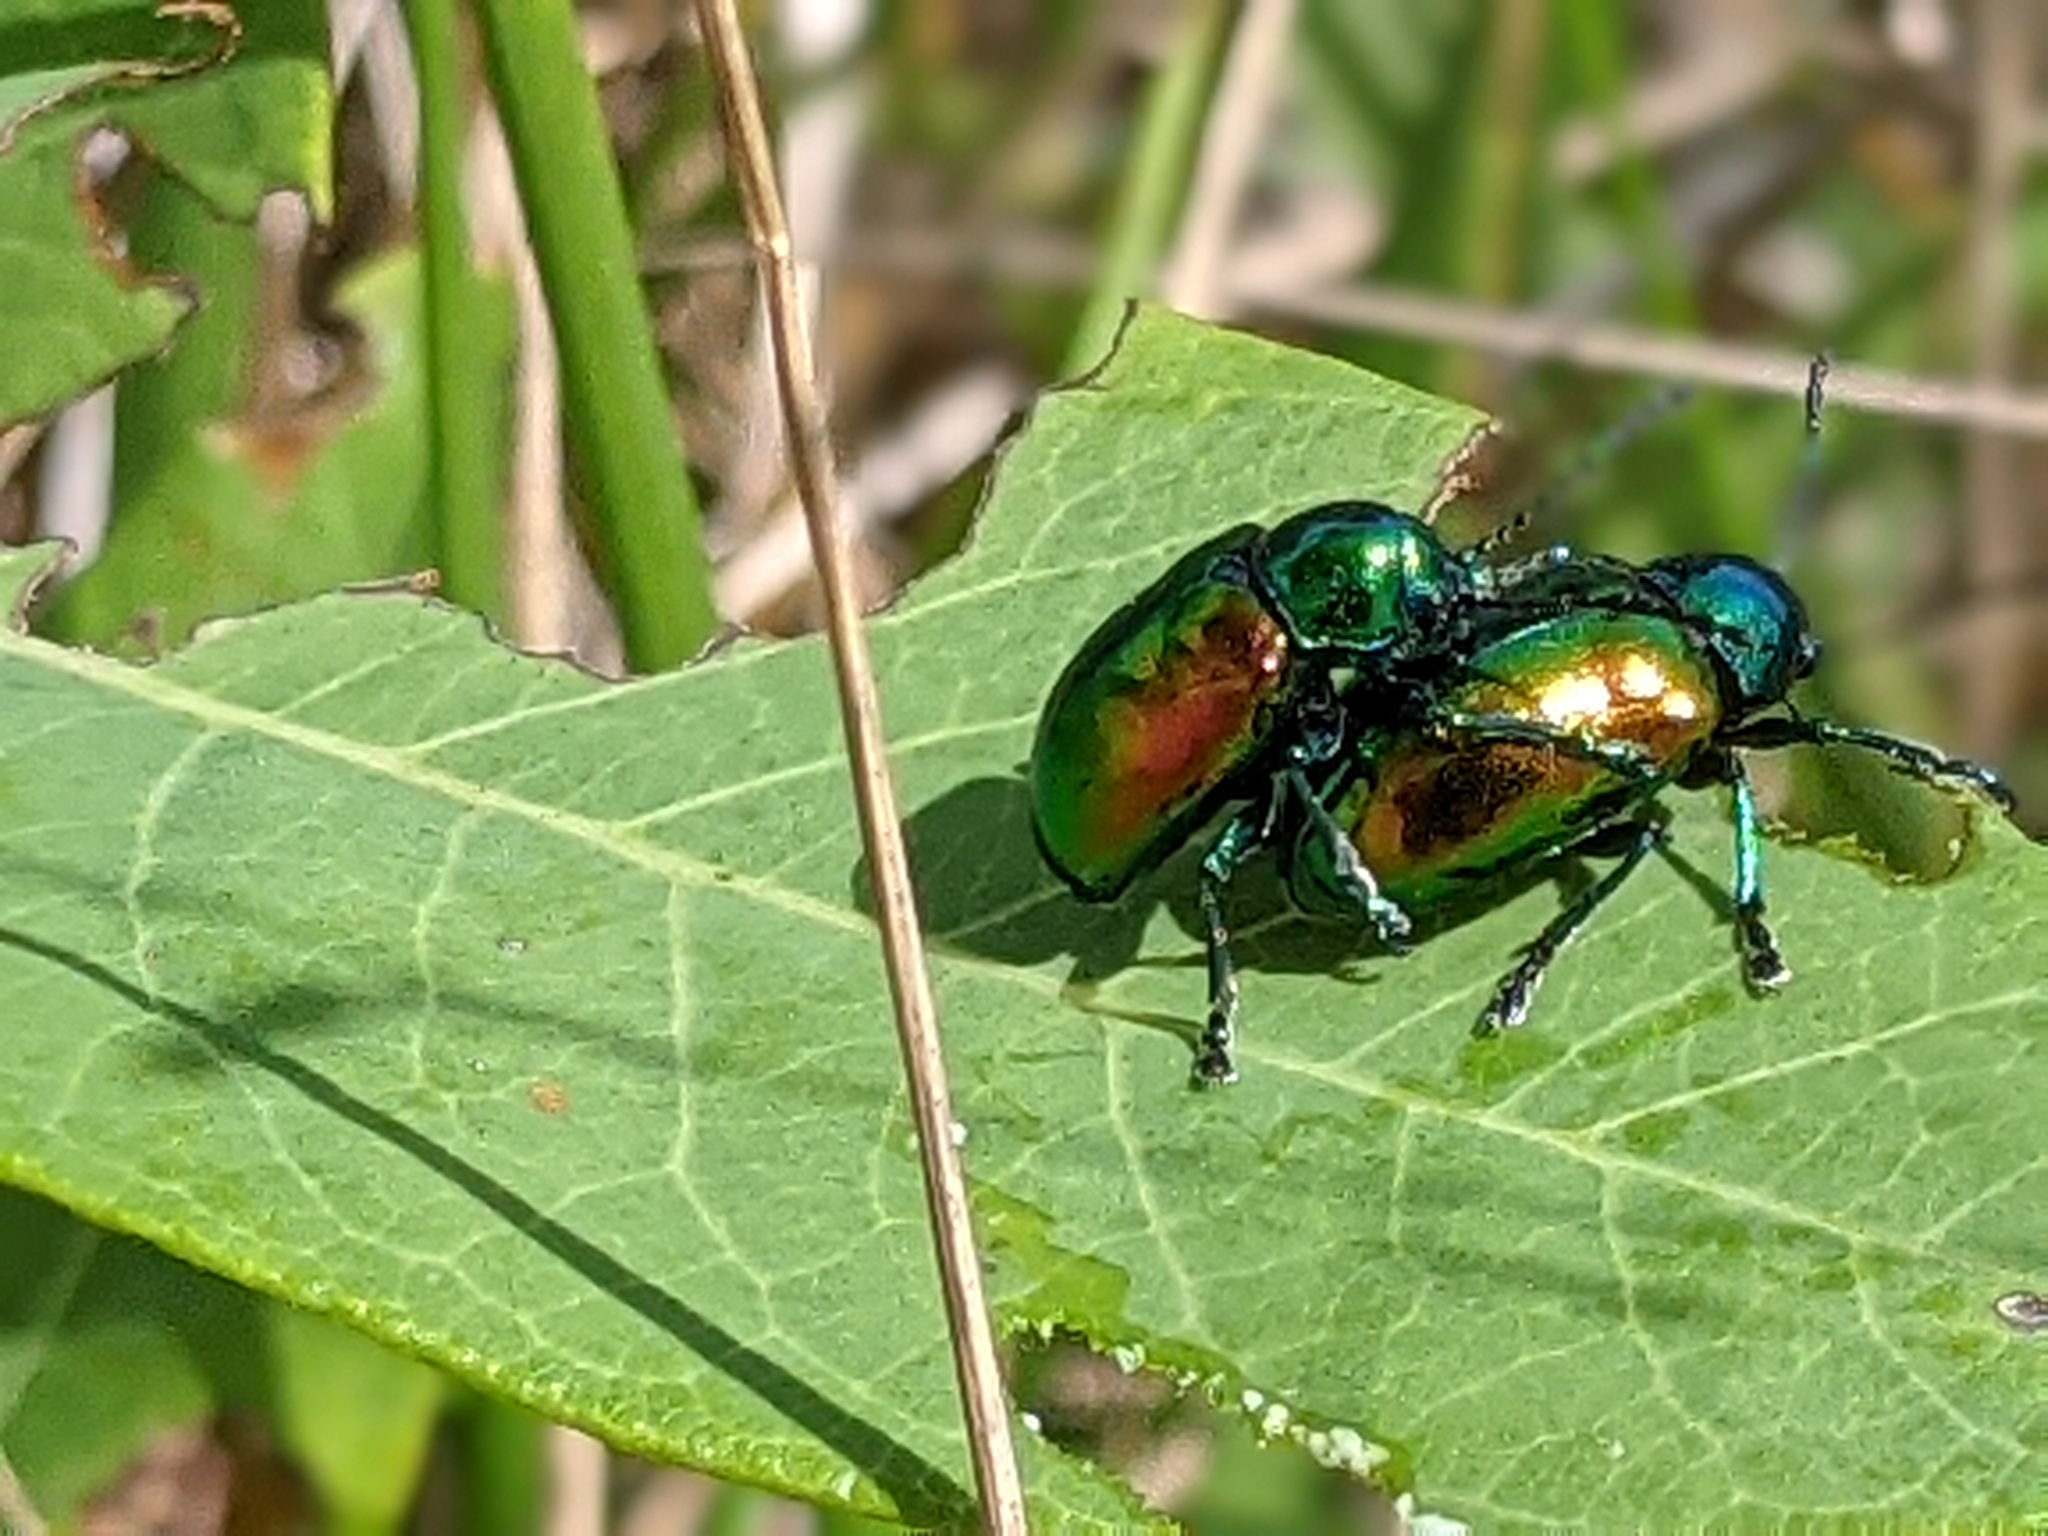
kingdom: Animalia
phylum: Arthropoda
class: Insecta
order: Coleoptera
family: Chrysomelidae
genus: Chrysochus
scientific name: Chrysochus auratus
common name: Dogbane leaf beetle
